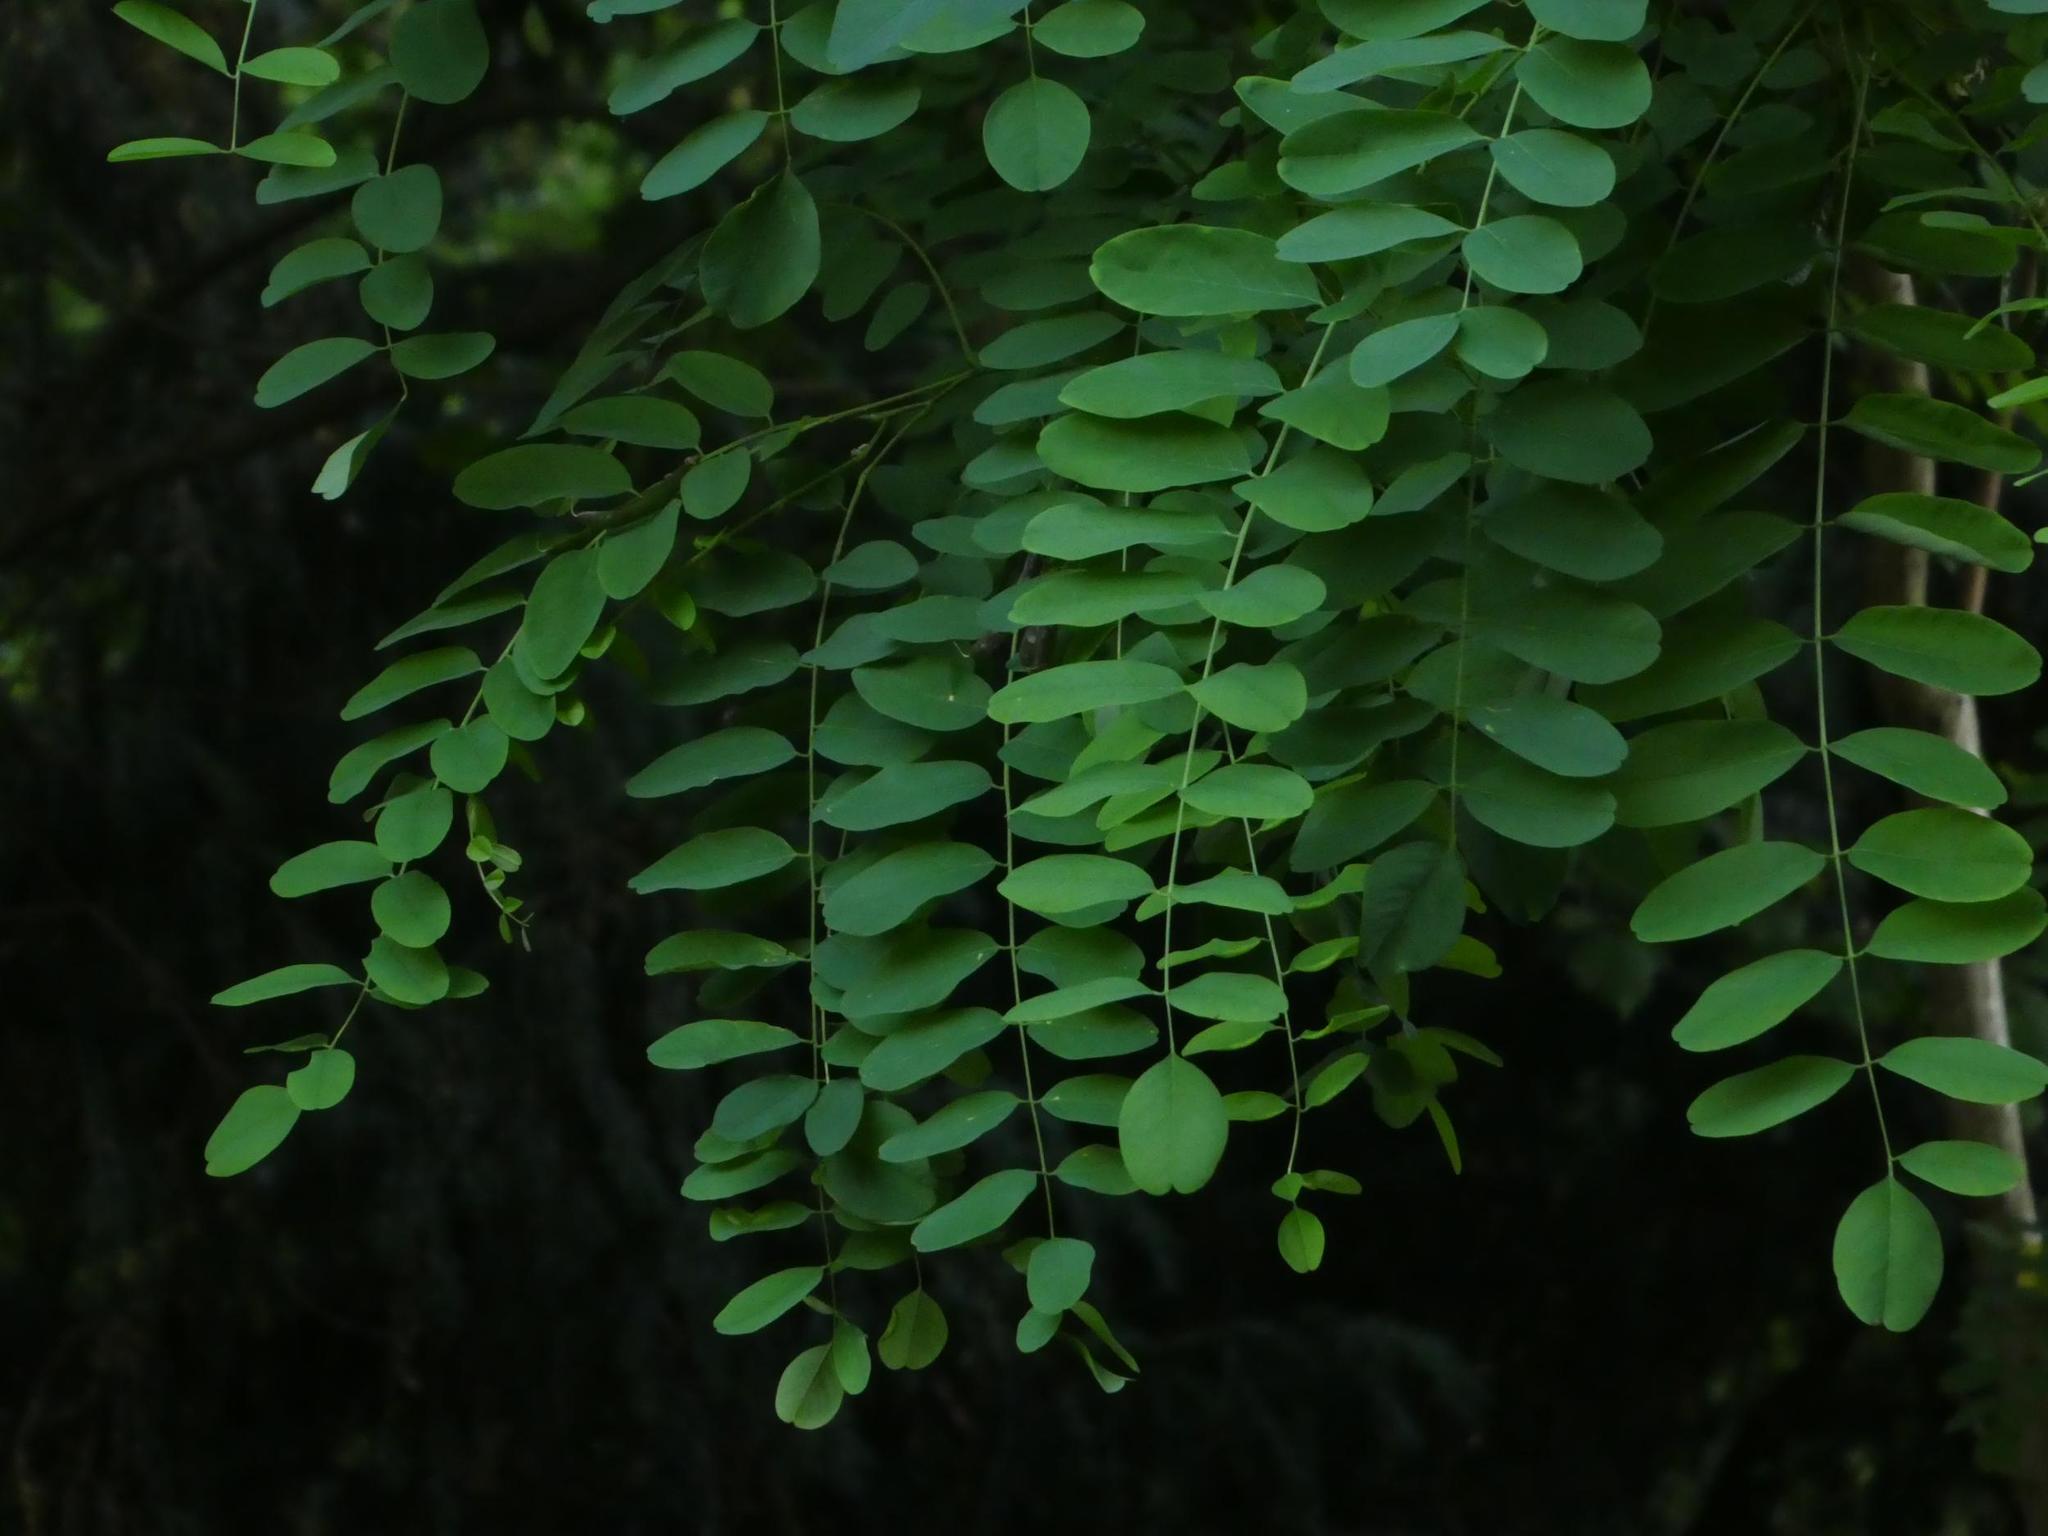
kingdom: Plantae
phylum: Tracheophyta
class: Magnoliopsida
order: Fabales
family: Fabaceae
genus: Robinia
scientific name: Robinia pseudoacacia
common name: Black locust
